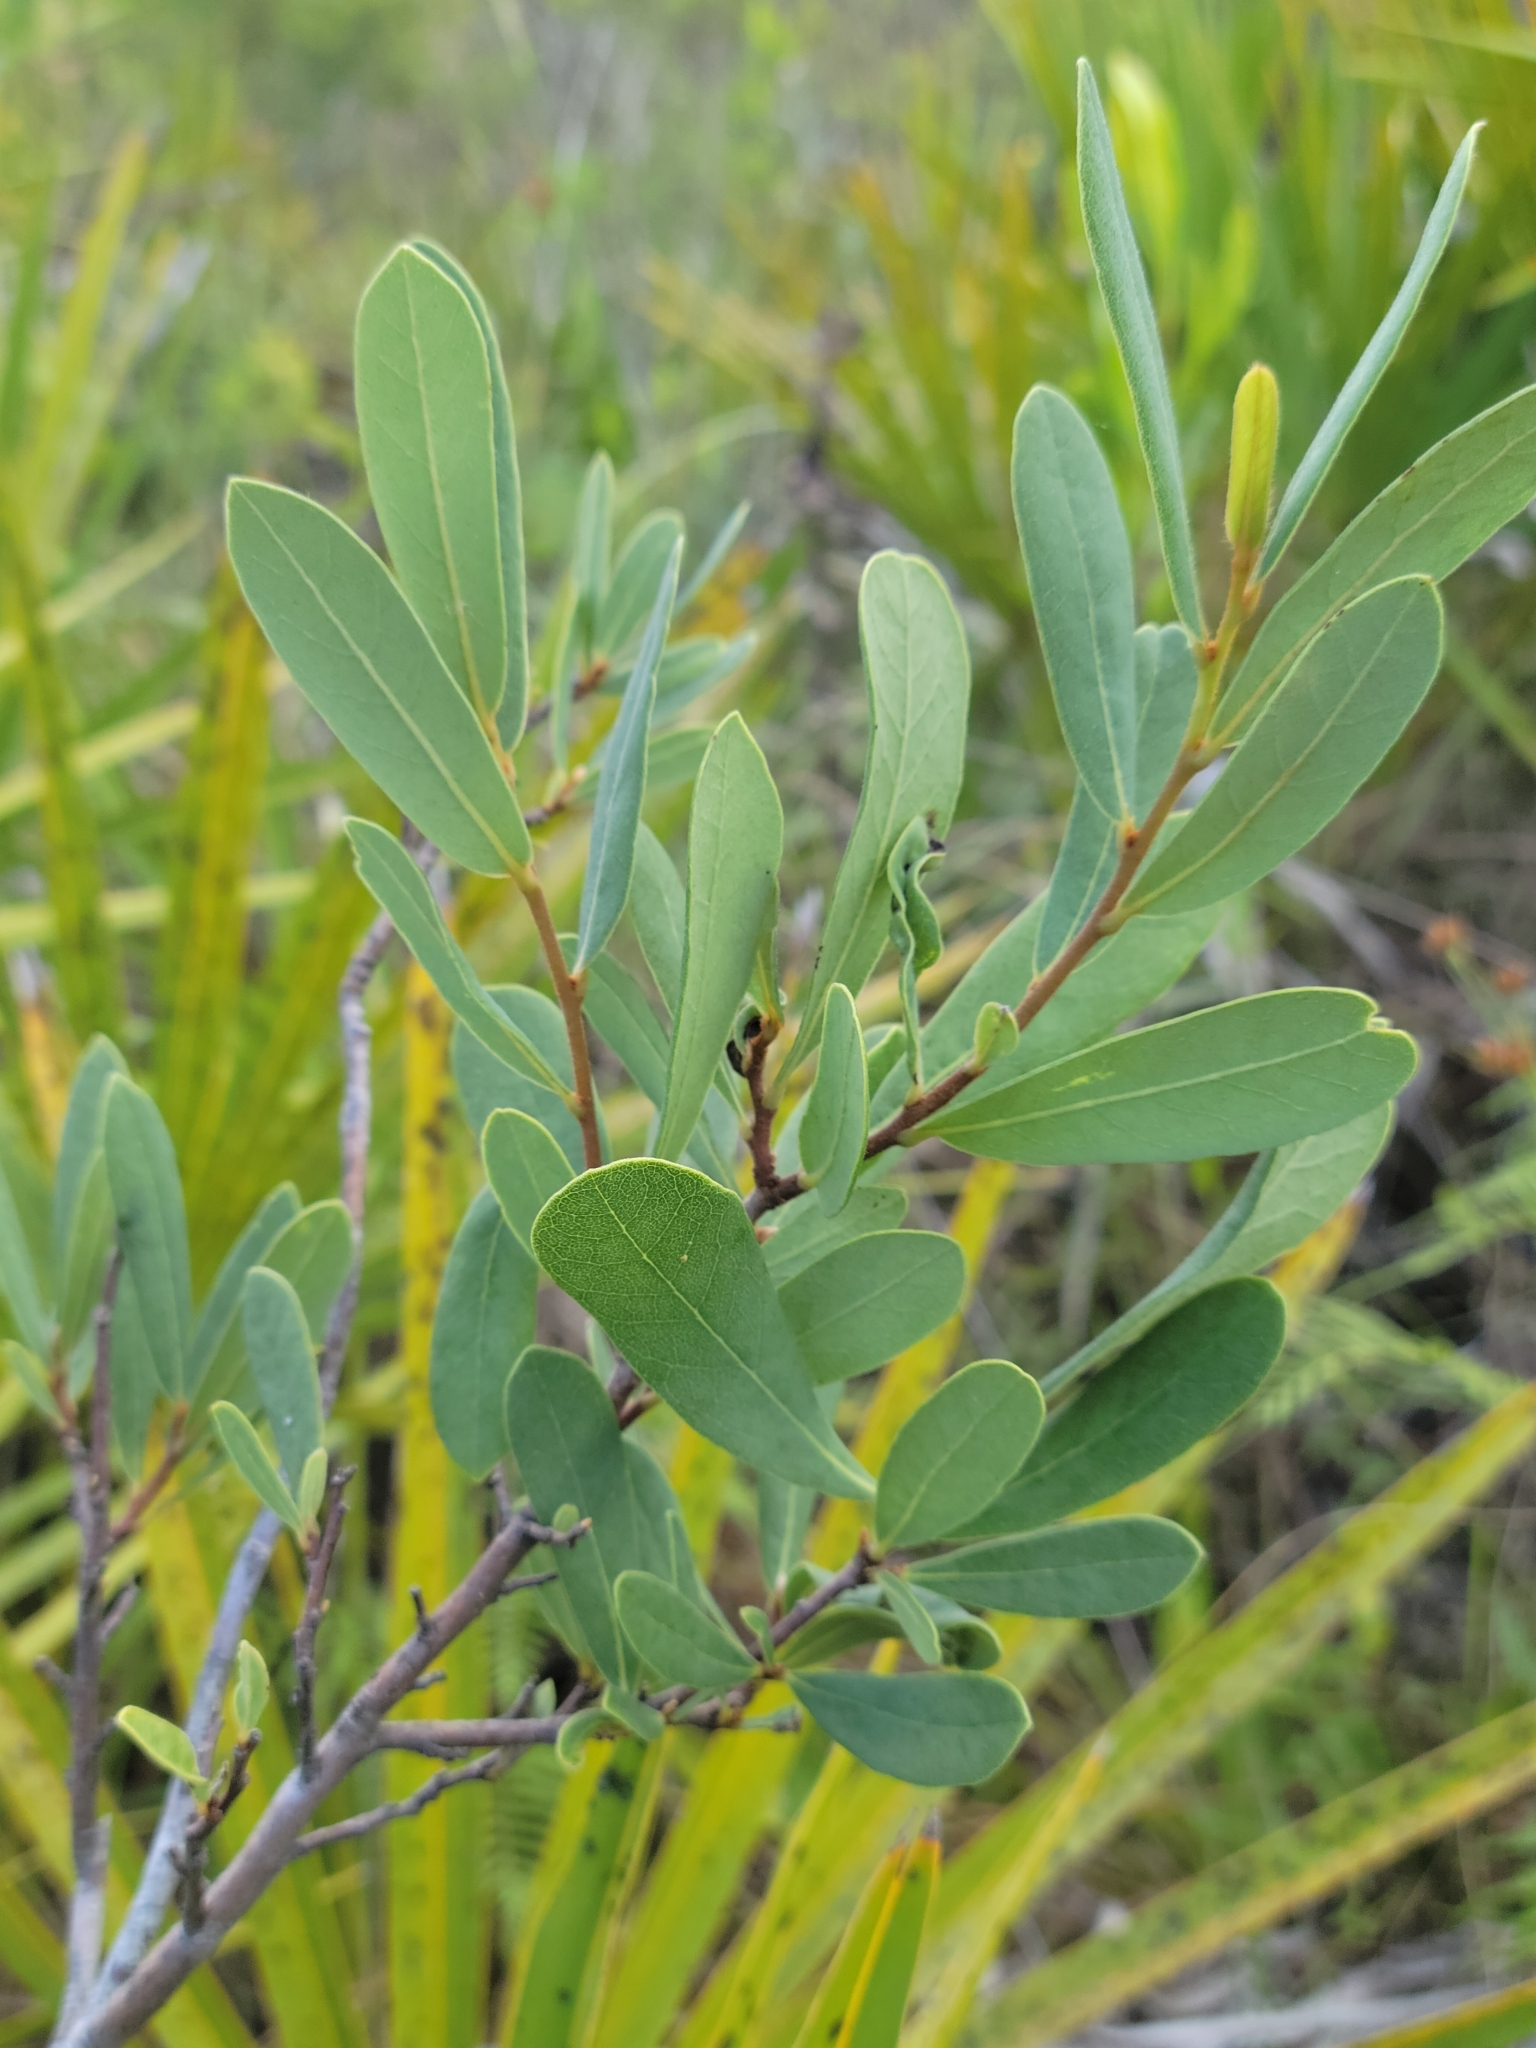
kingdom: Plantae
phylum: Tracheophyta
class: Magnoliopsida
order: Magnoliales
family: Annonaceae
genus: Asimina
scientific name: Asimina reticulata
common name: Flag pawpaw
